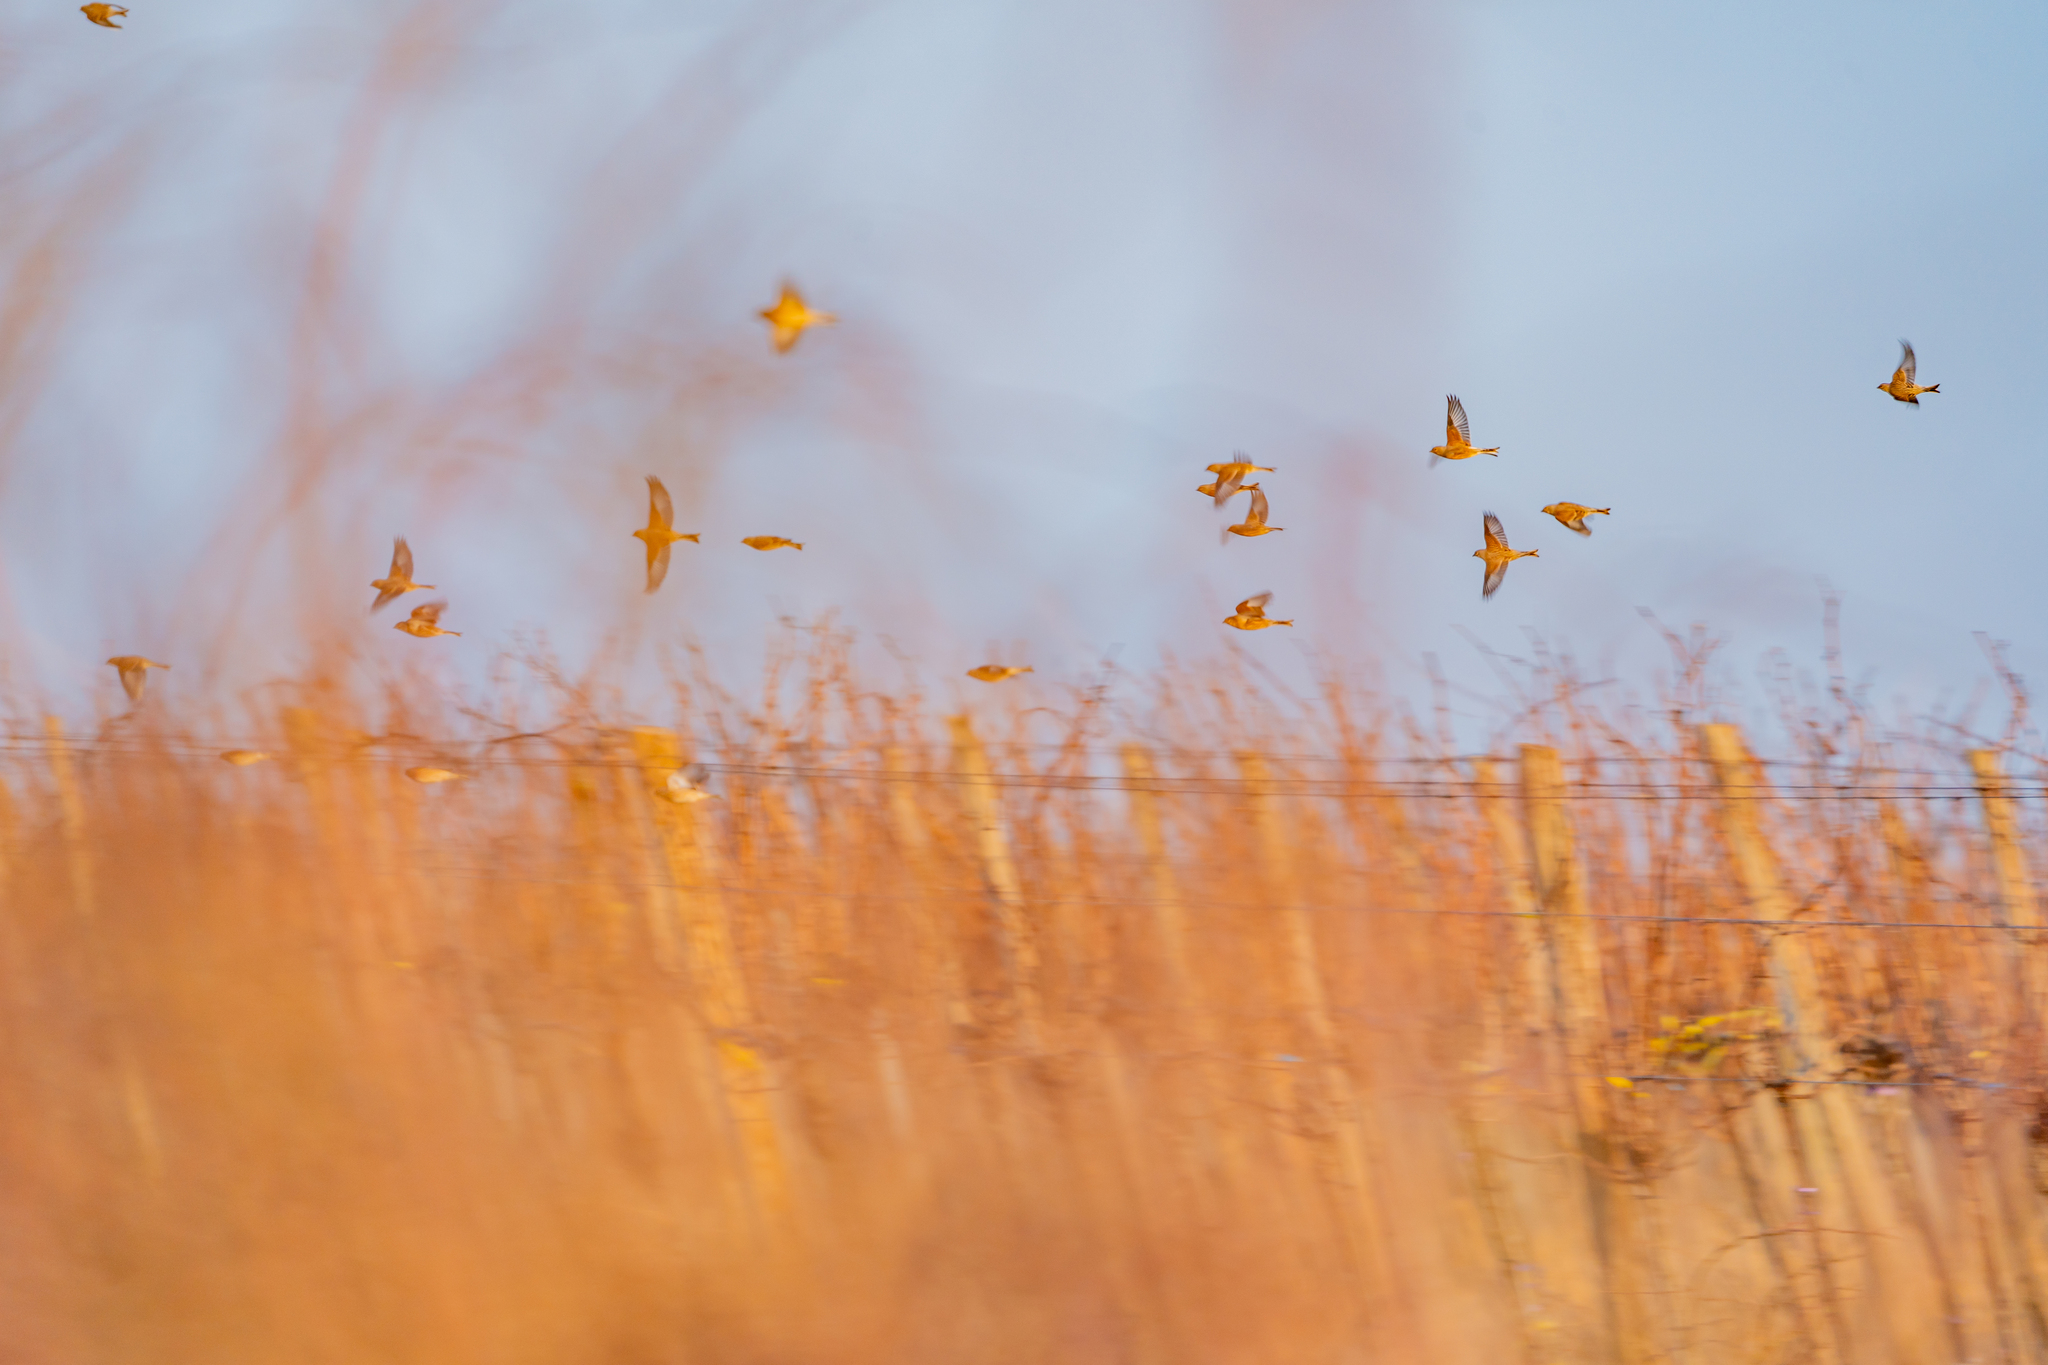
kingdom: Animalia
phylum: Chordata
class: Aves
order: Passeriformes
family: Fringillidae
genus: Linaria
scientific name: Linaria cannabina
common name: Common linnet
